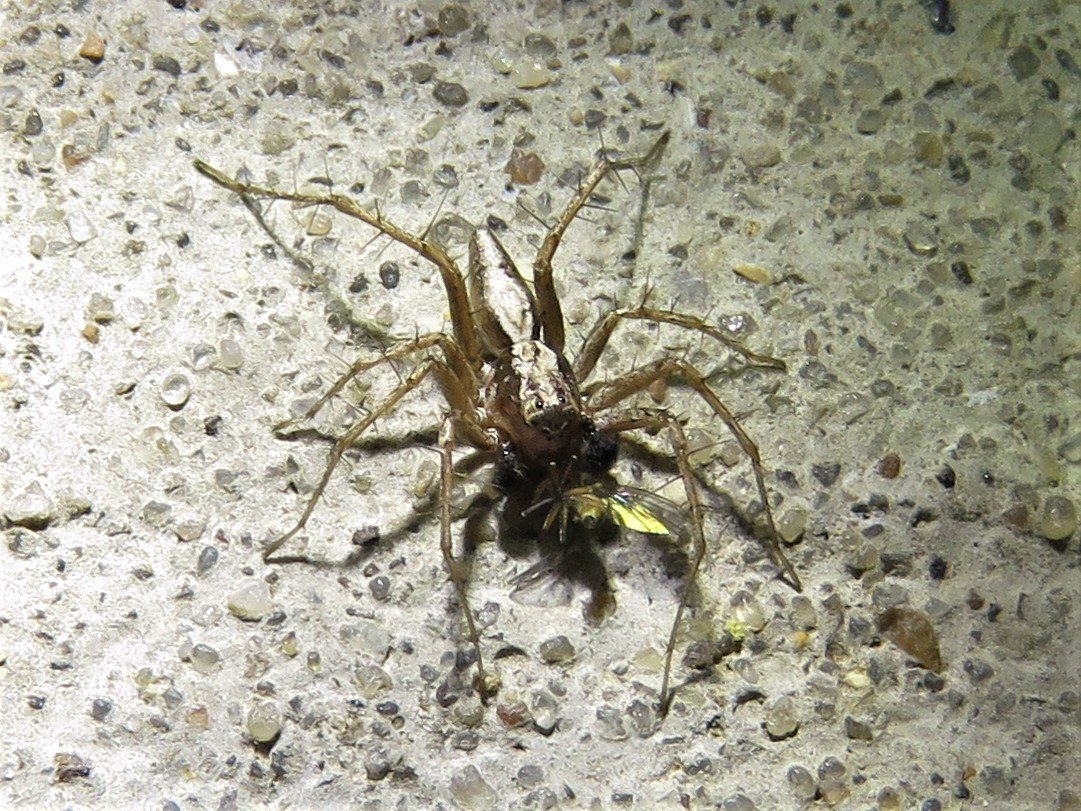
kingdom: Animalia
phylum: Arthropoda
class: Arachnida
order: Araneae
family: Oxyopidae
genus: Oxyopes
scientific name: Oxyopes salticus
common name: Lynx spiders
